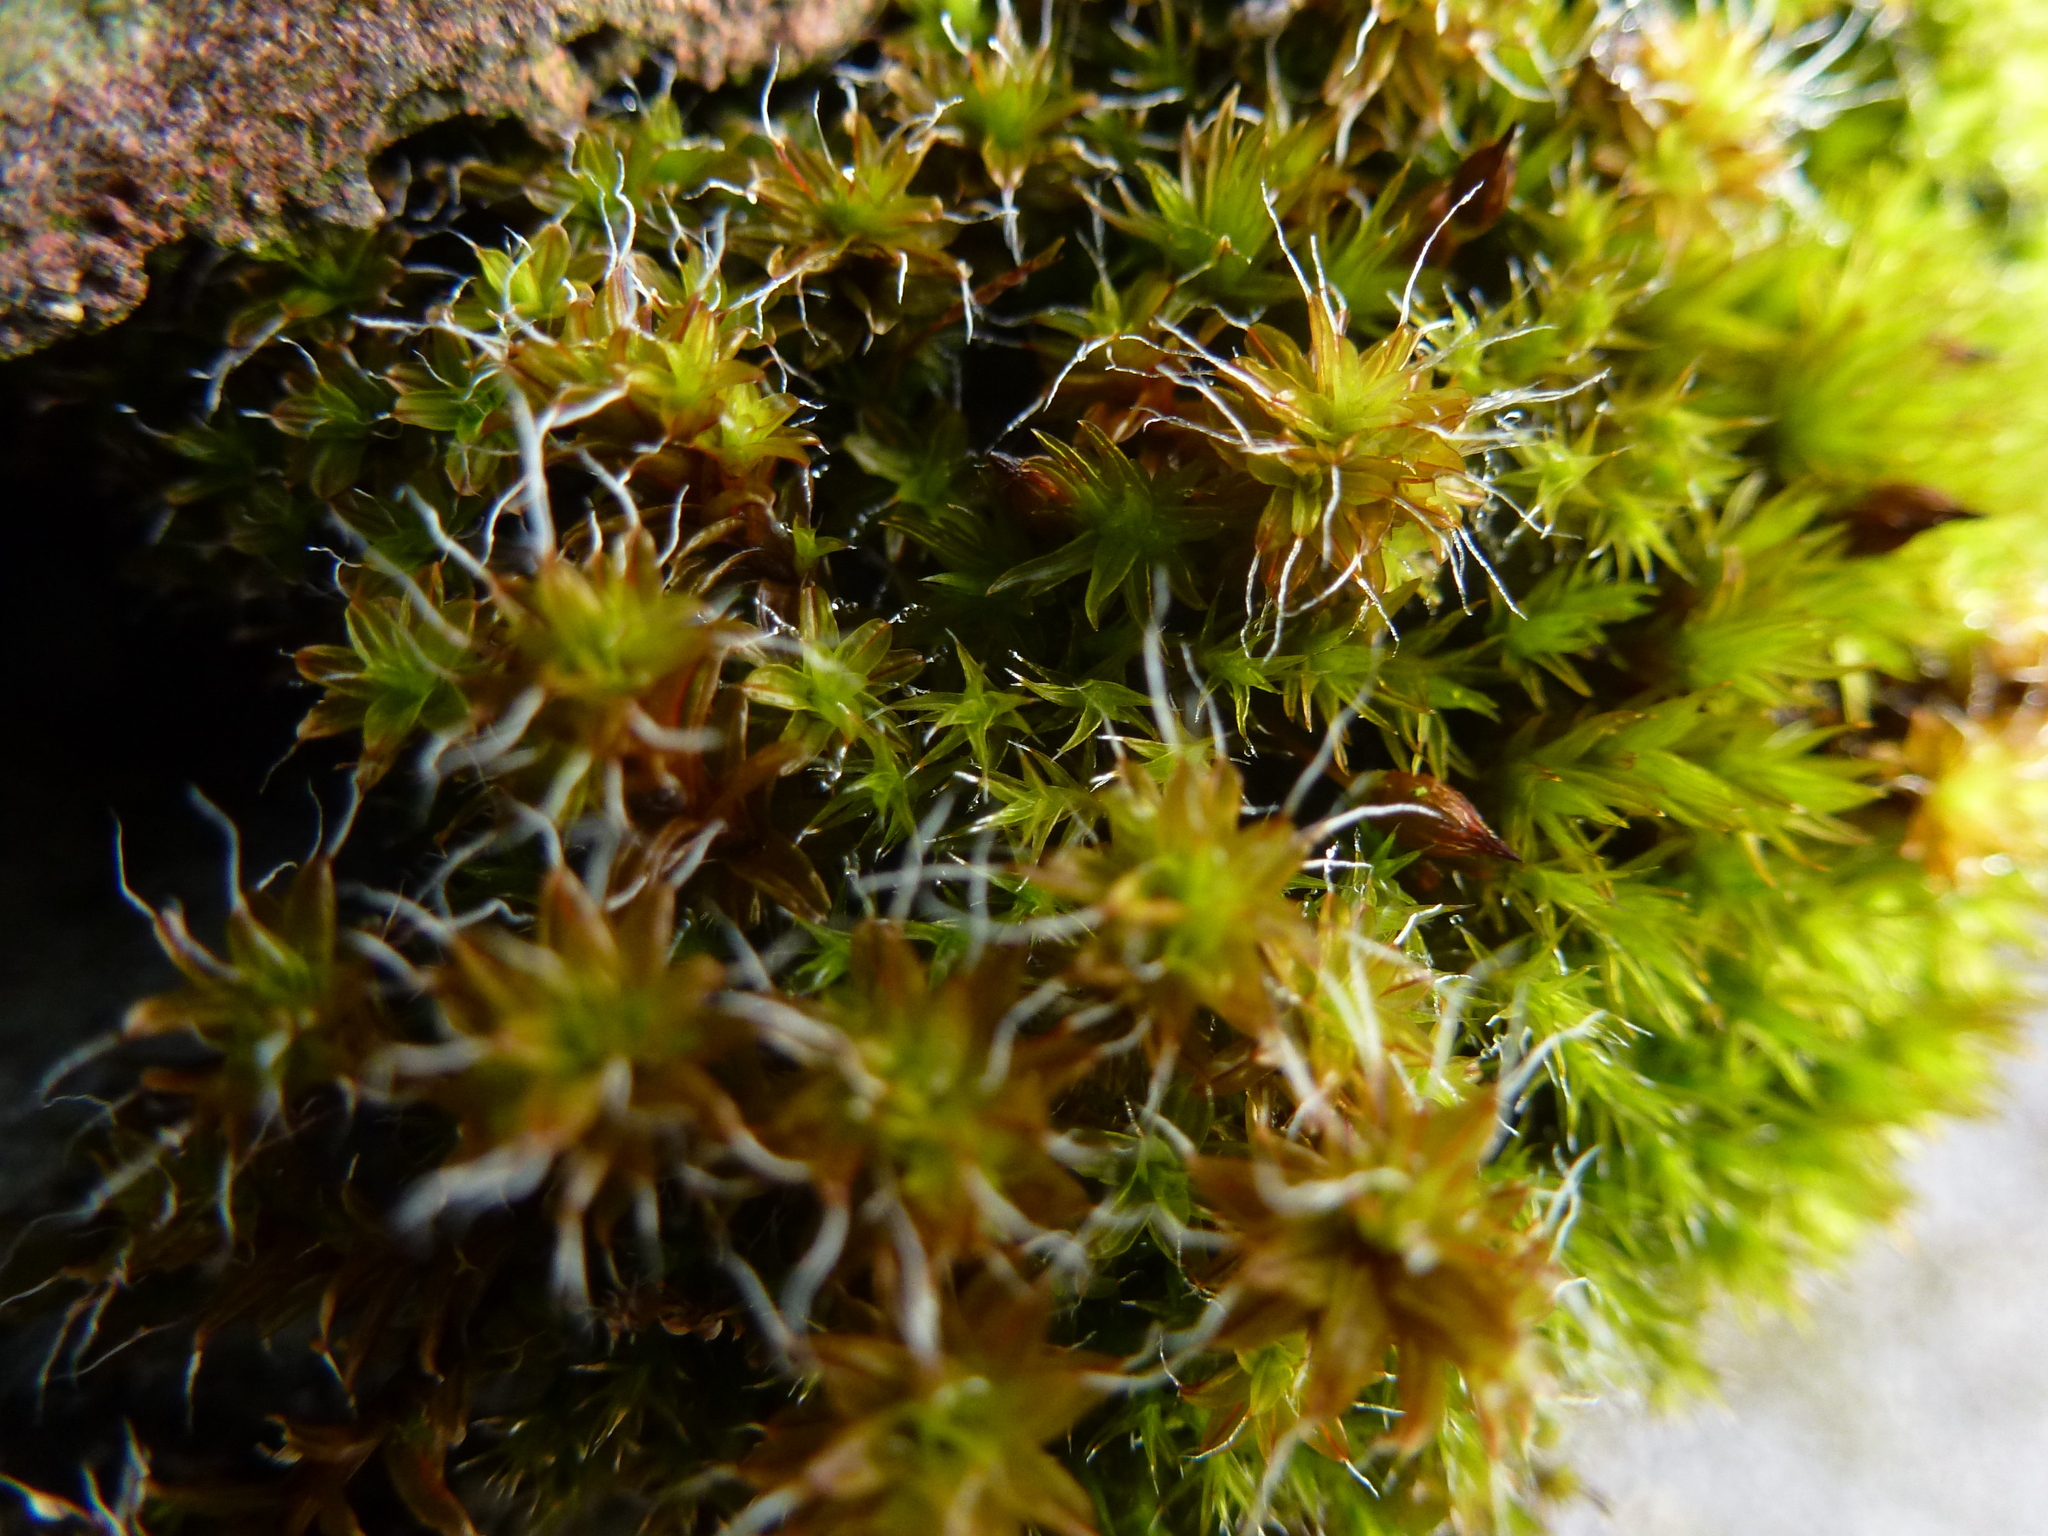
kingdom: Plantae
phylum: Bryophyta
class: Bryopsida
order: Pottiales
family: Pottiaceae
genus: Syntrichia
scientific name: Syntrichia ruralis
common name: Sidewalk screw moss
